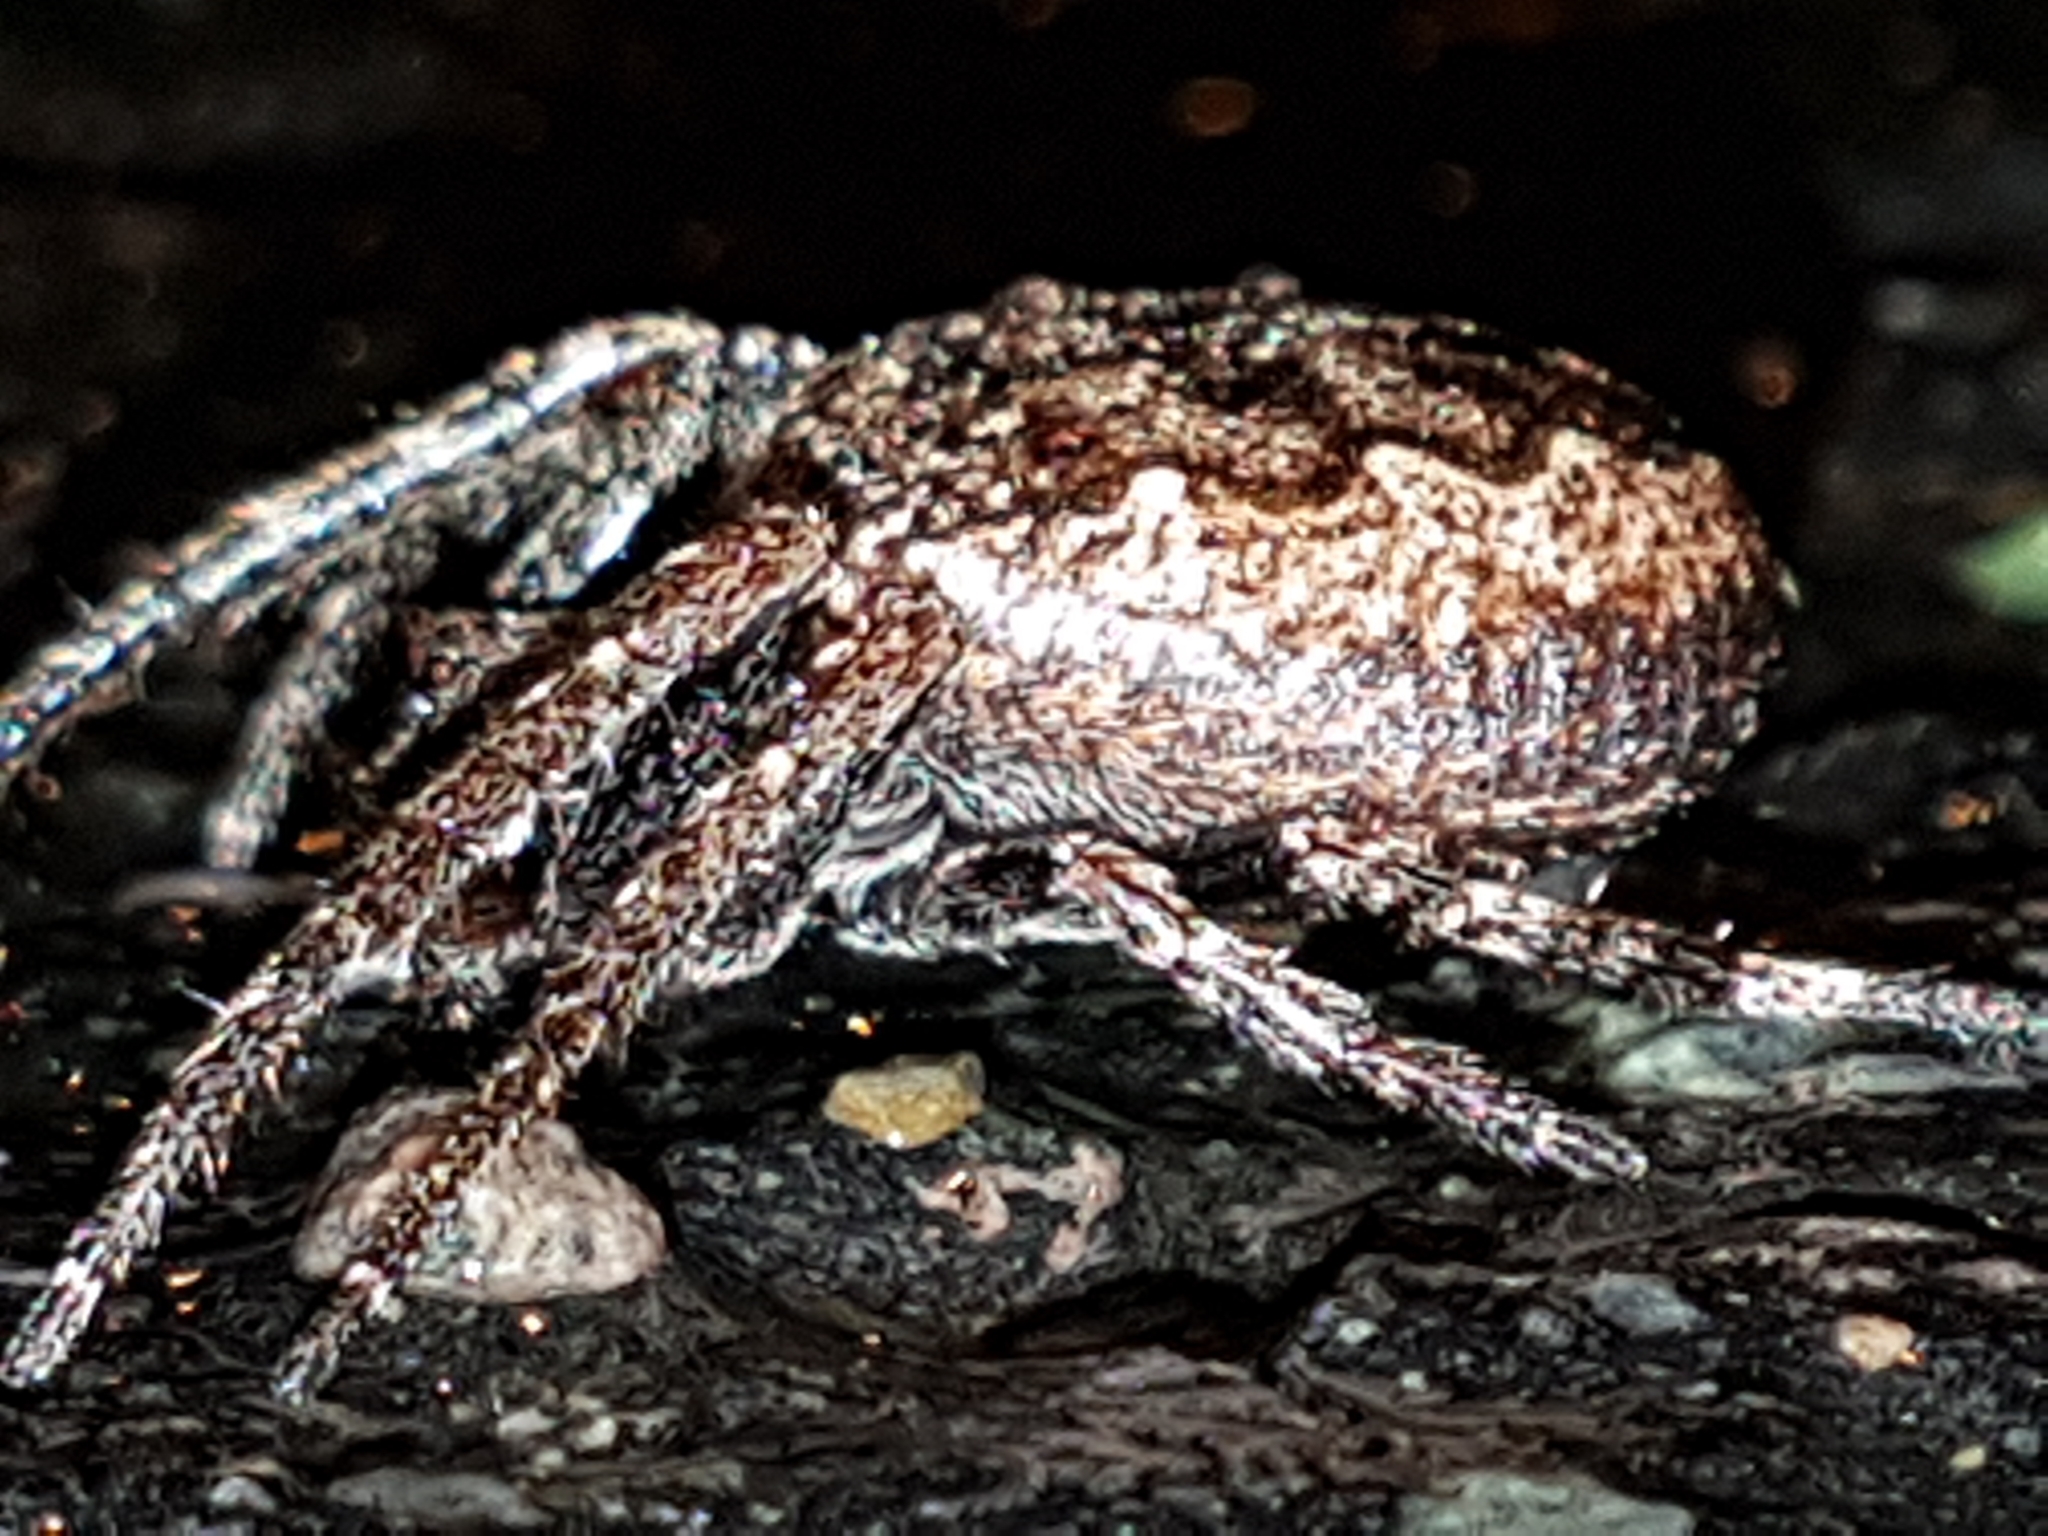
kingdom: Animalia
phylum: Arthropoda
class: Arachnida
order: Araneae
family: Araneidae
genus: Nuctenea
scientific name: Nuctenea umbratica
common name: Toad spider
